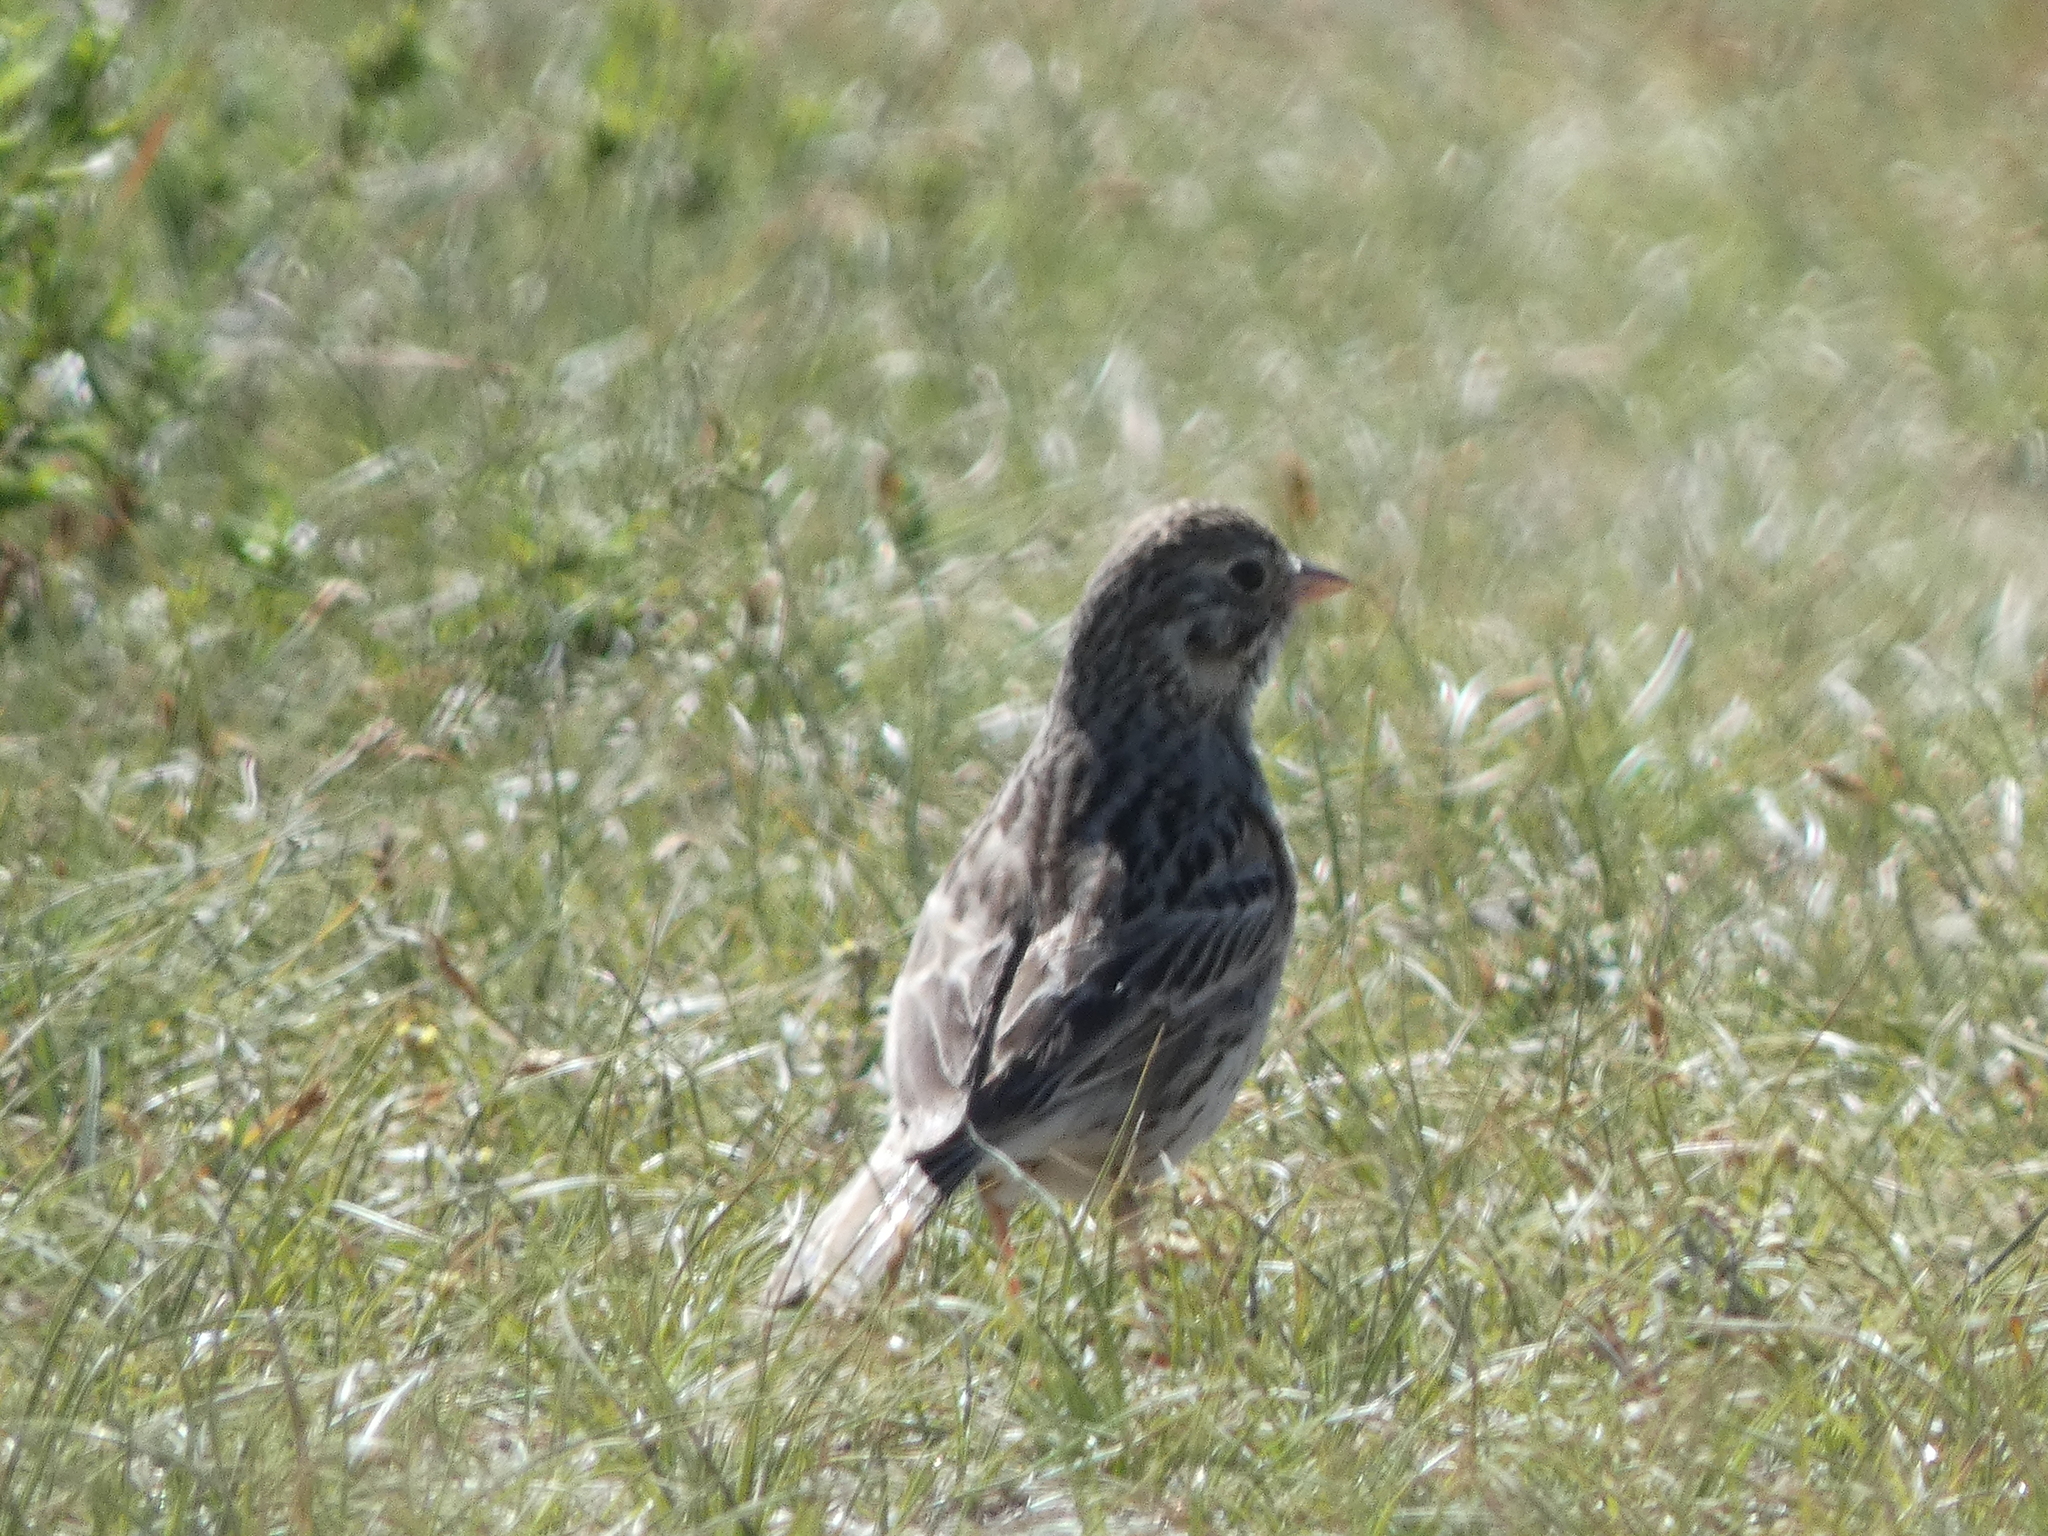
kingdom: Animalia
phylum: Chordata
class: Aves
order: Passeriformes
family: Passerellidae
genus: Pooecetes
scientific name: Pooecetes gramineus
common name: Vesper sparrow
